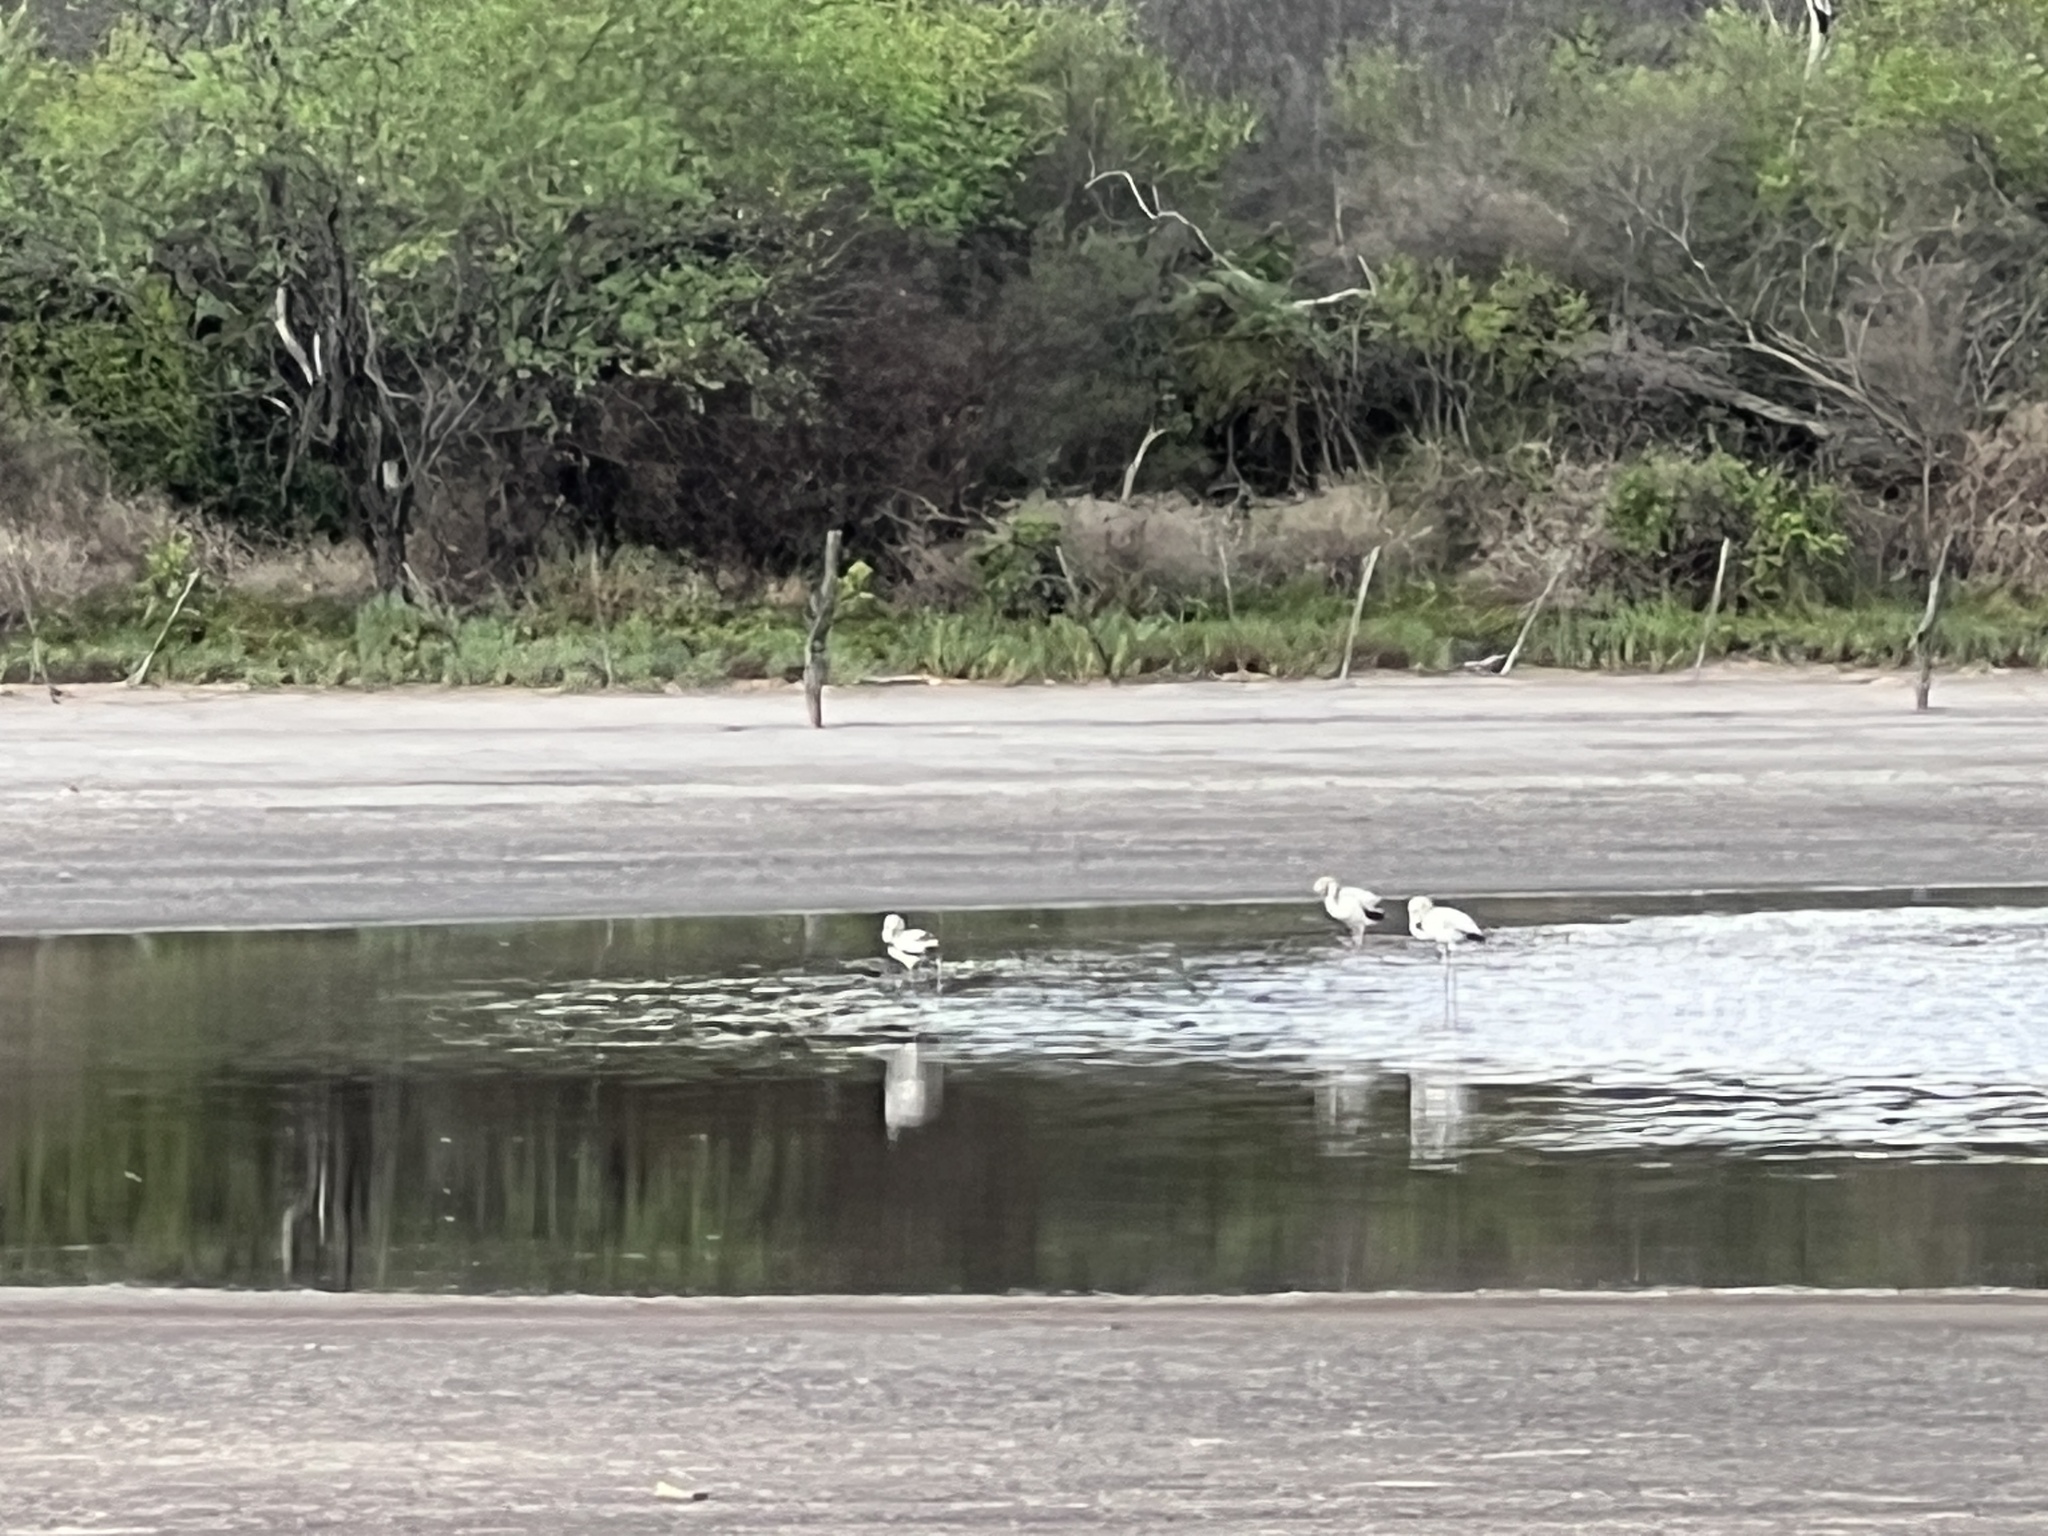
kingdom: Animalia
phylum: Chordata
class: Aves
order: Phoenicopteriformes
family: Phoenicopteridae
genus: Phoenicopterus
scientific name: Phoenicopterus chilensis
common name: Chilean flamingo
